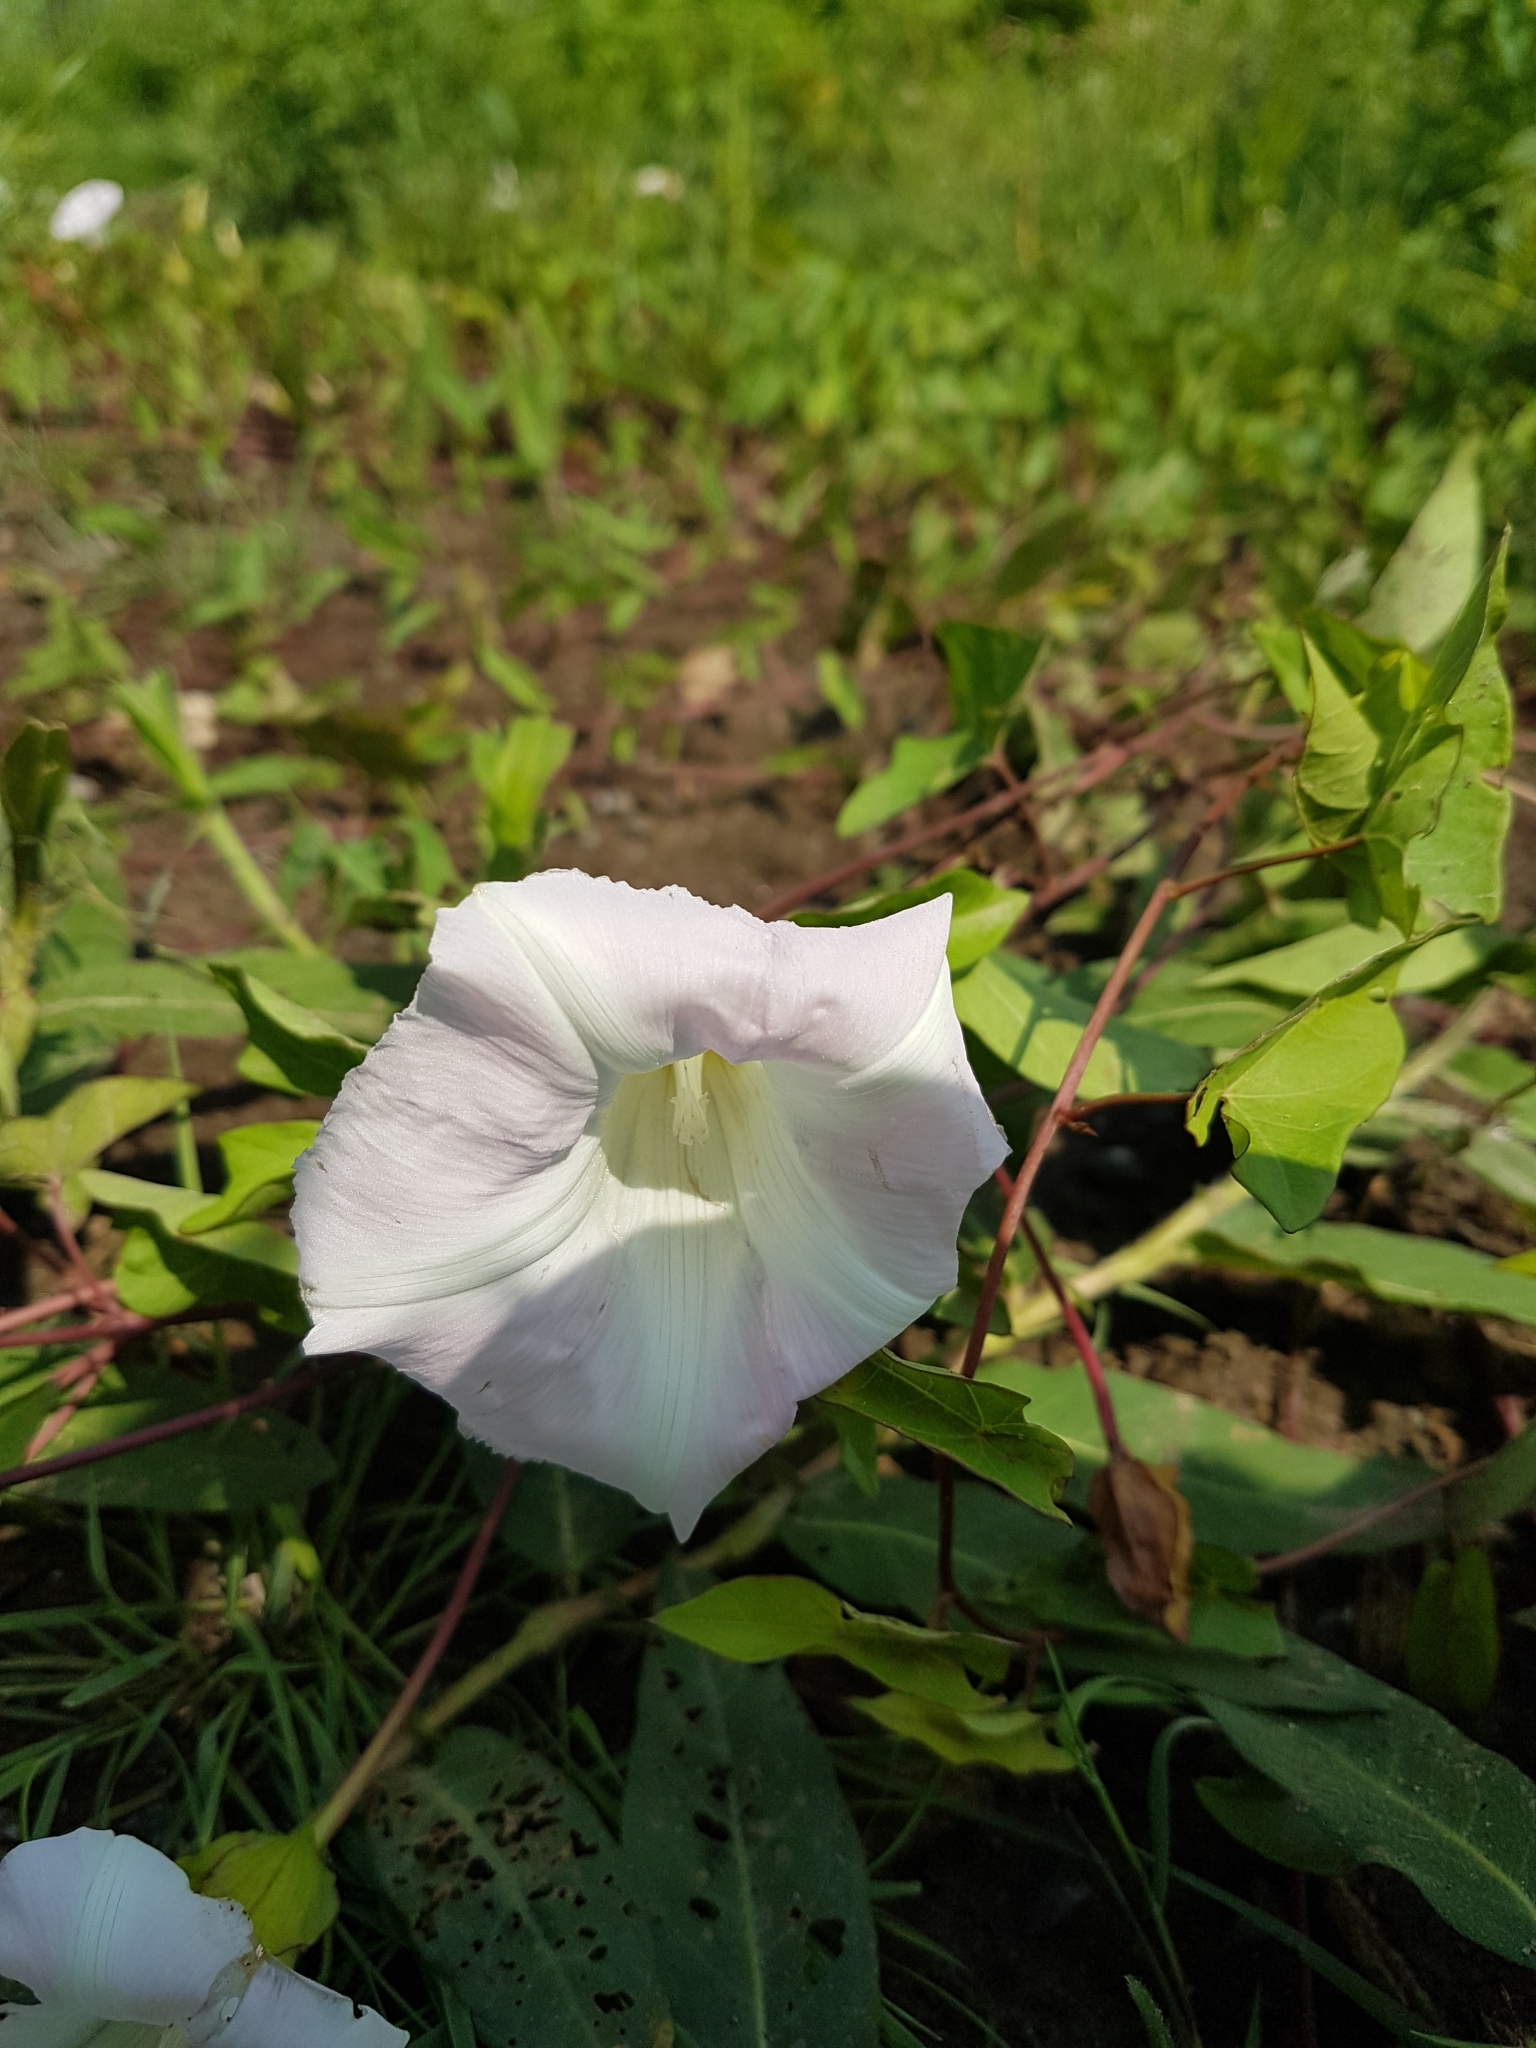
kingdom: Plantae
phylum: Tracheophyta
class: Magnoliopsida
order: Solanales
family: Convolvulaceae
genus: Calystegia
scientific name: Calystegia sepium
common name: Hedge bindweed
